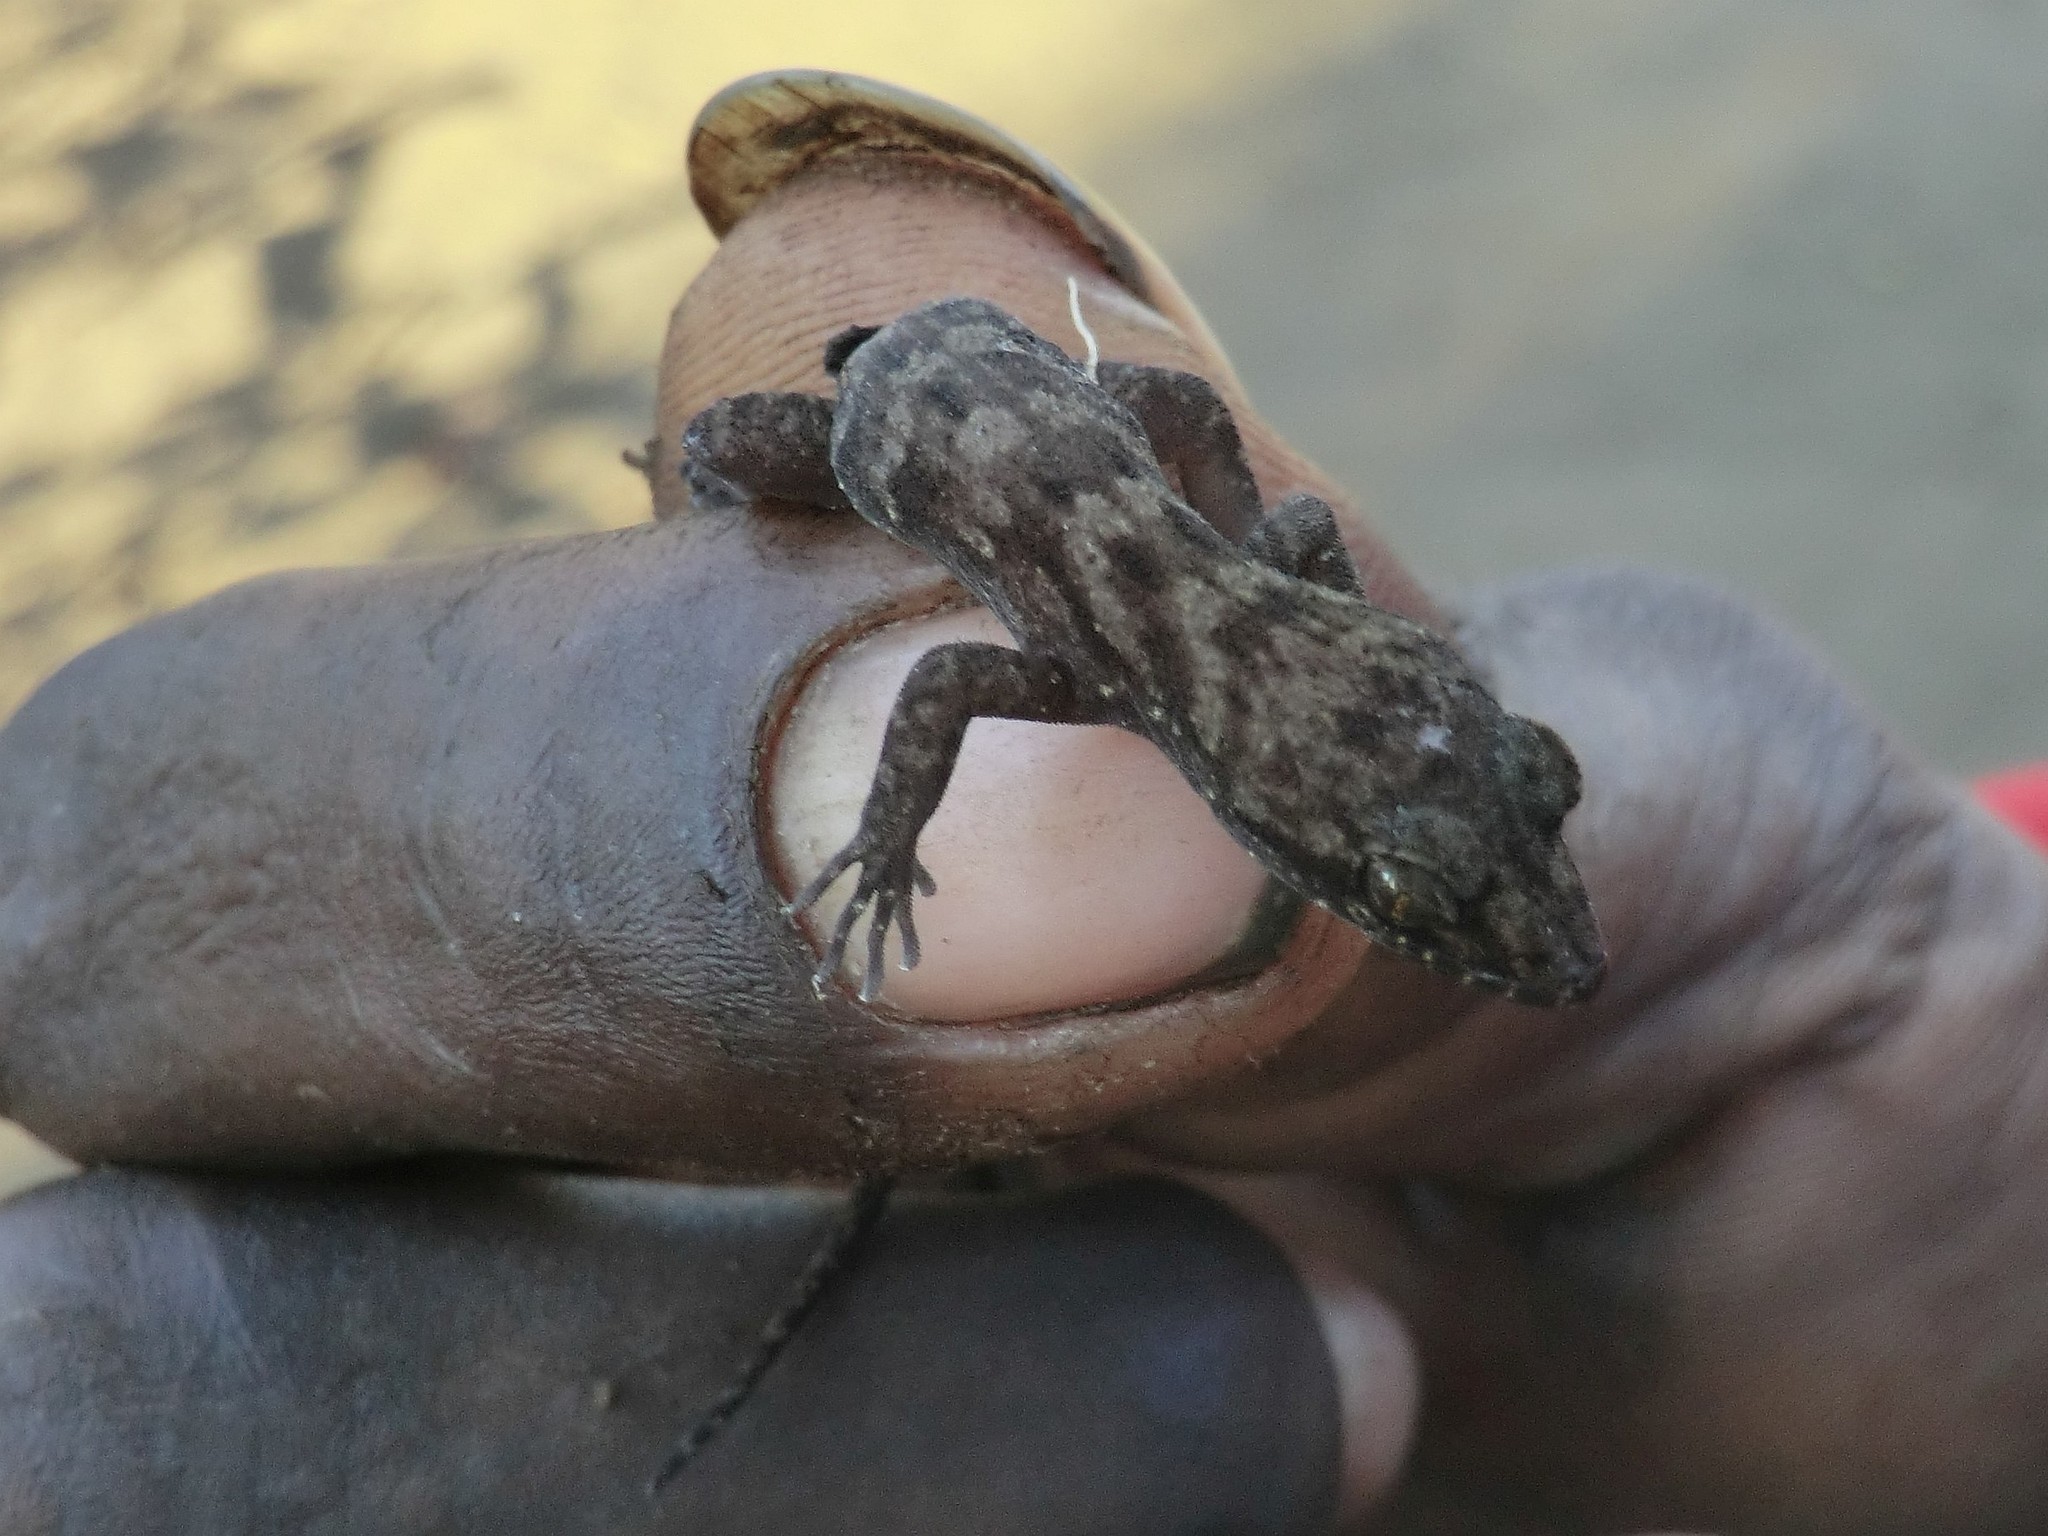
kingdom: Animalia
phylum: Chordata
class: Squamata
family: Gekkonidae
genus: Nactus
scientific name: Nactus pelagicus
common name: Pelagic gecko
